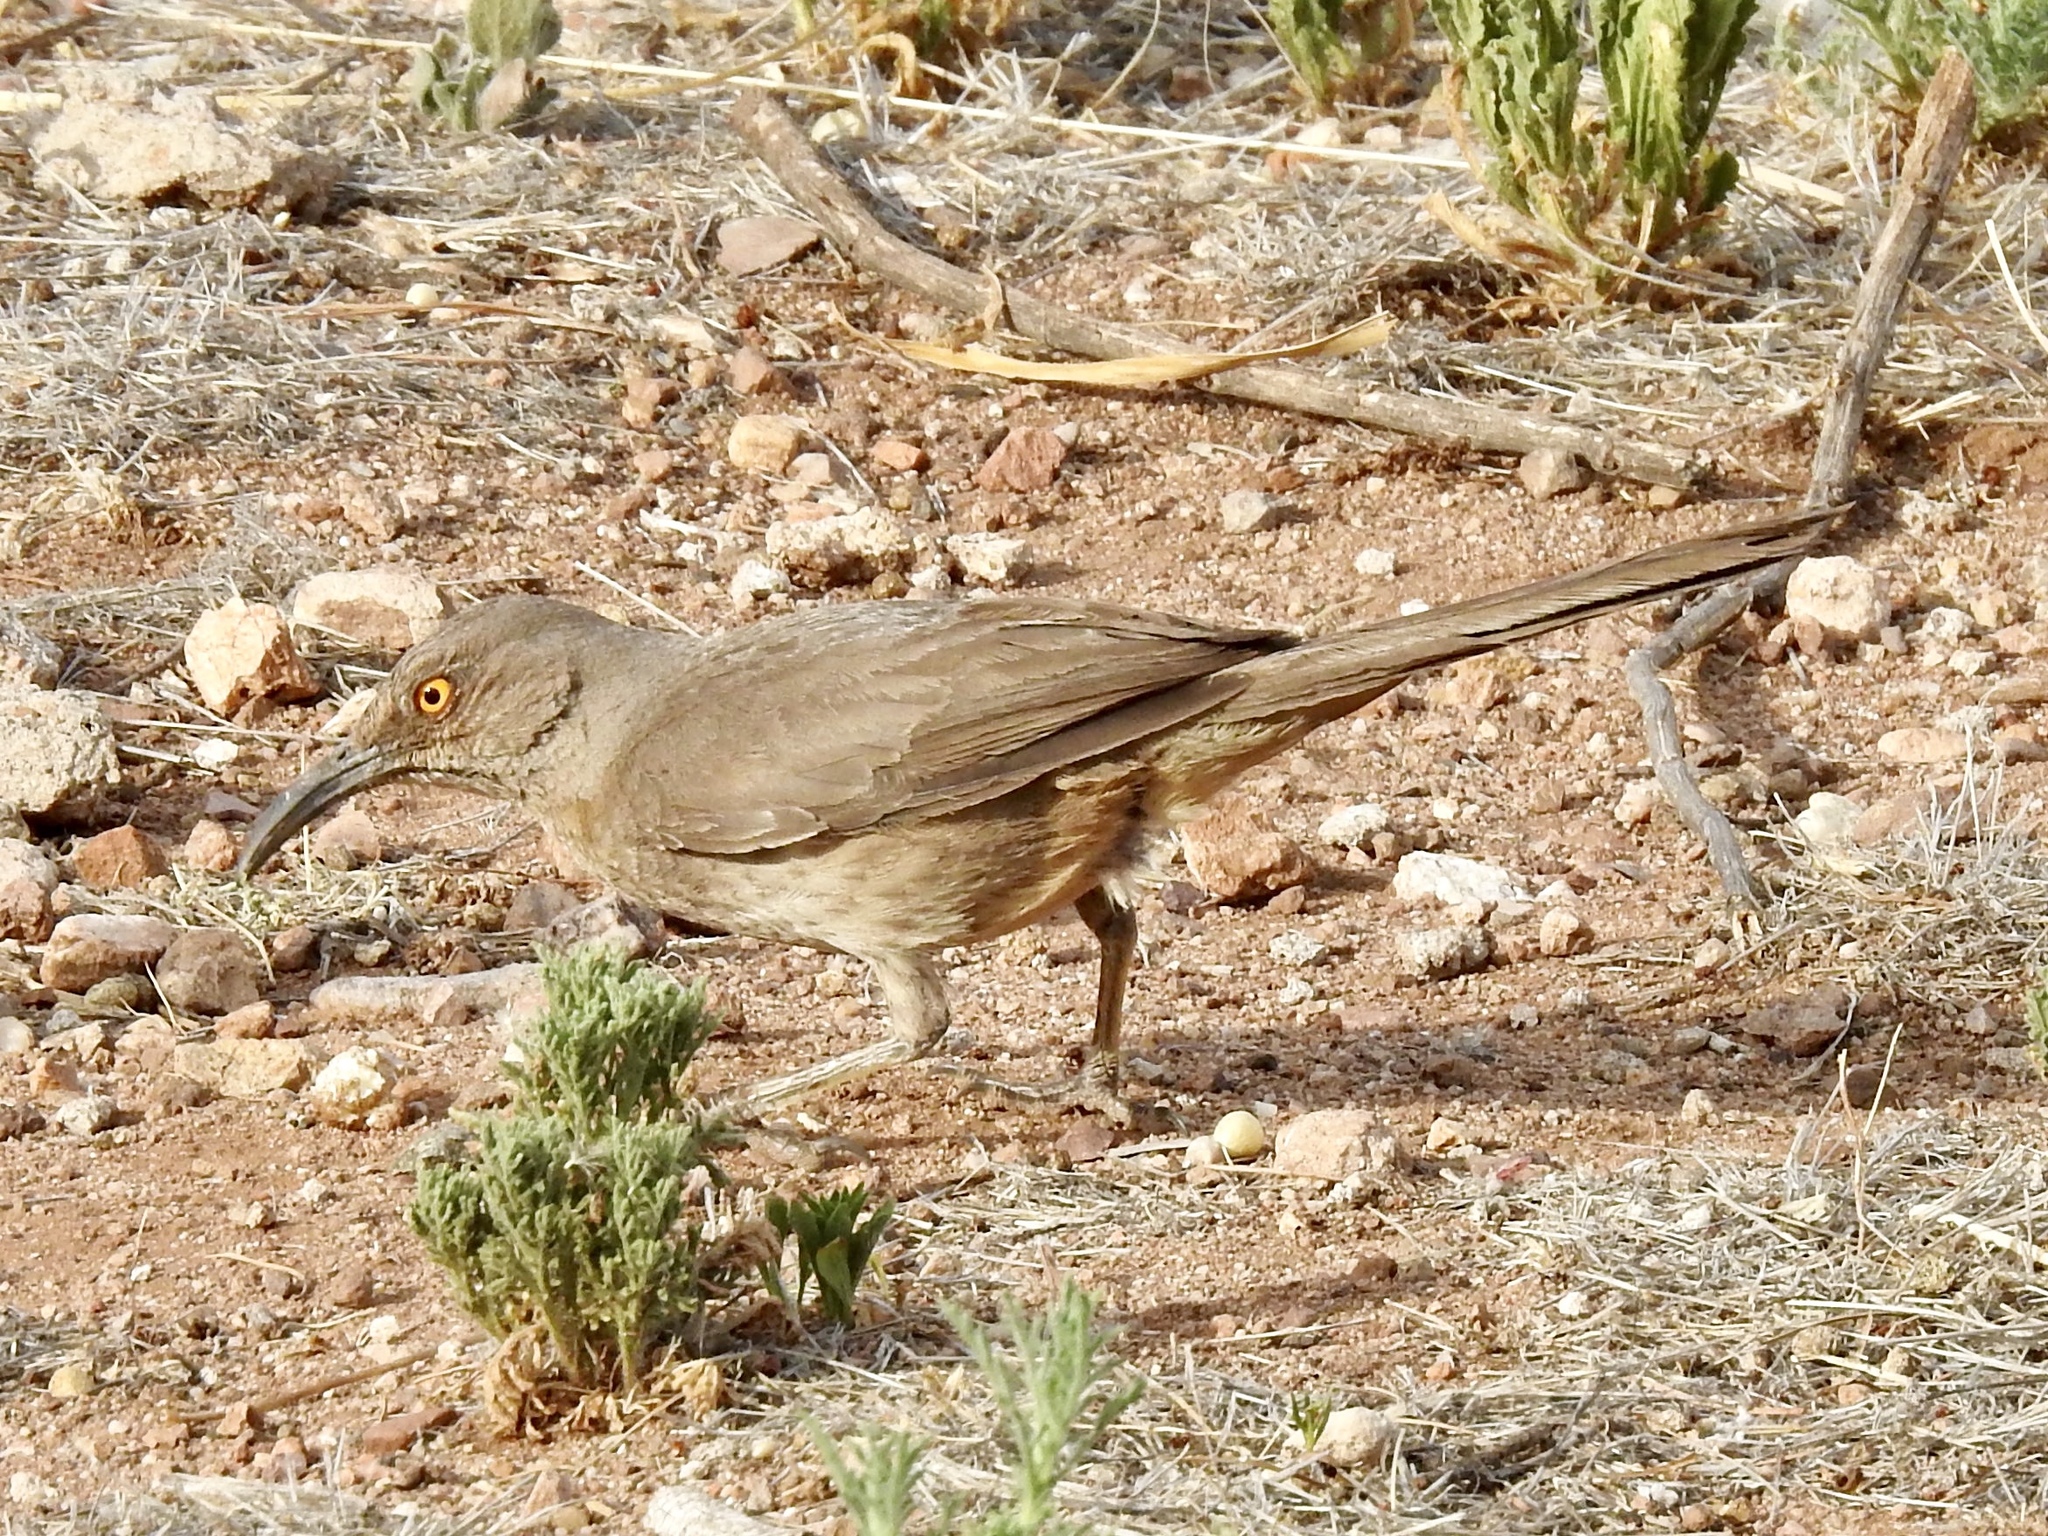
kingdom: Animalia
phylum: Chordata
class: Aves
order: Passeriformes
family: Mimidae
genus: Toxostoma
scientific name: Toxostoma curvirostre
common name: Curve-billed thrasher
